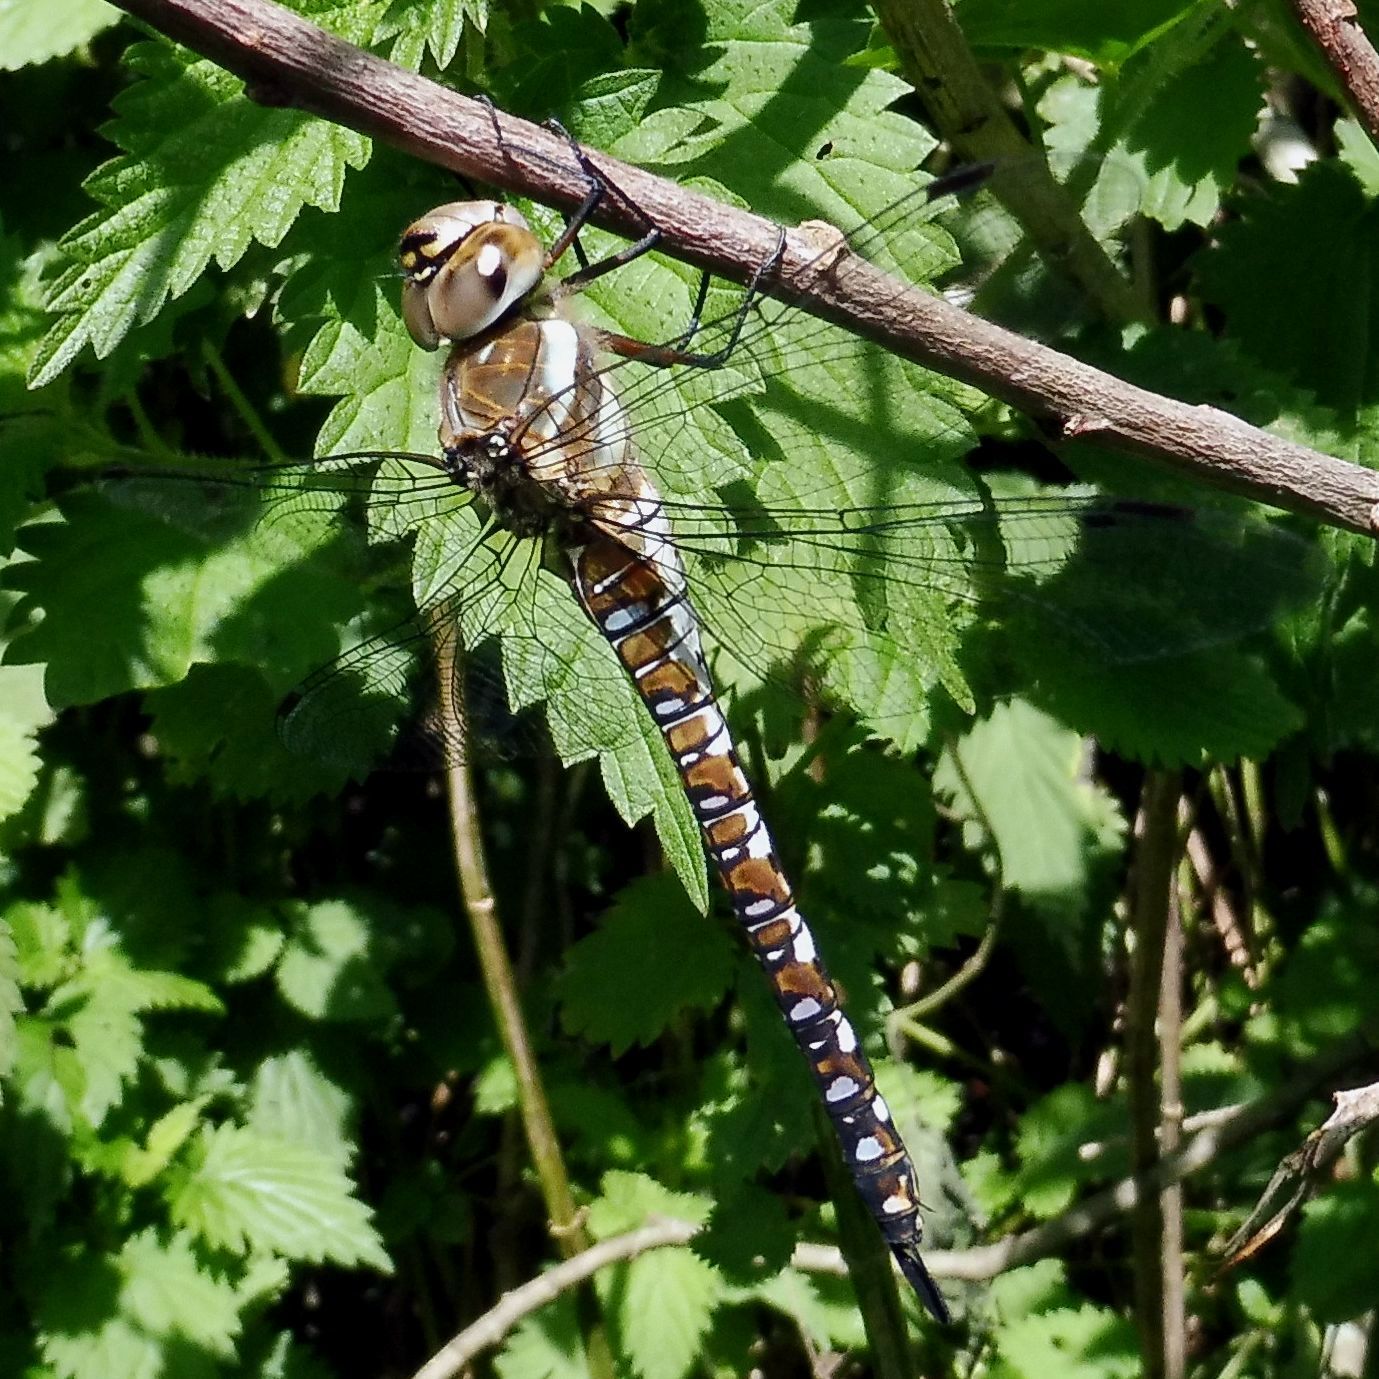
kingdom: Animalia
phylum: Arthropoda
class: Insecta
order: Odonata
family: Aeshnidae
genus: Aeshna
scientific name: Aeshna mixta
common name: Migrant hawker
